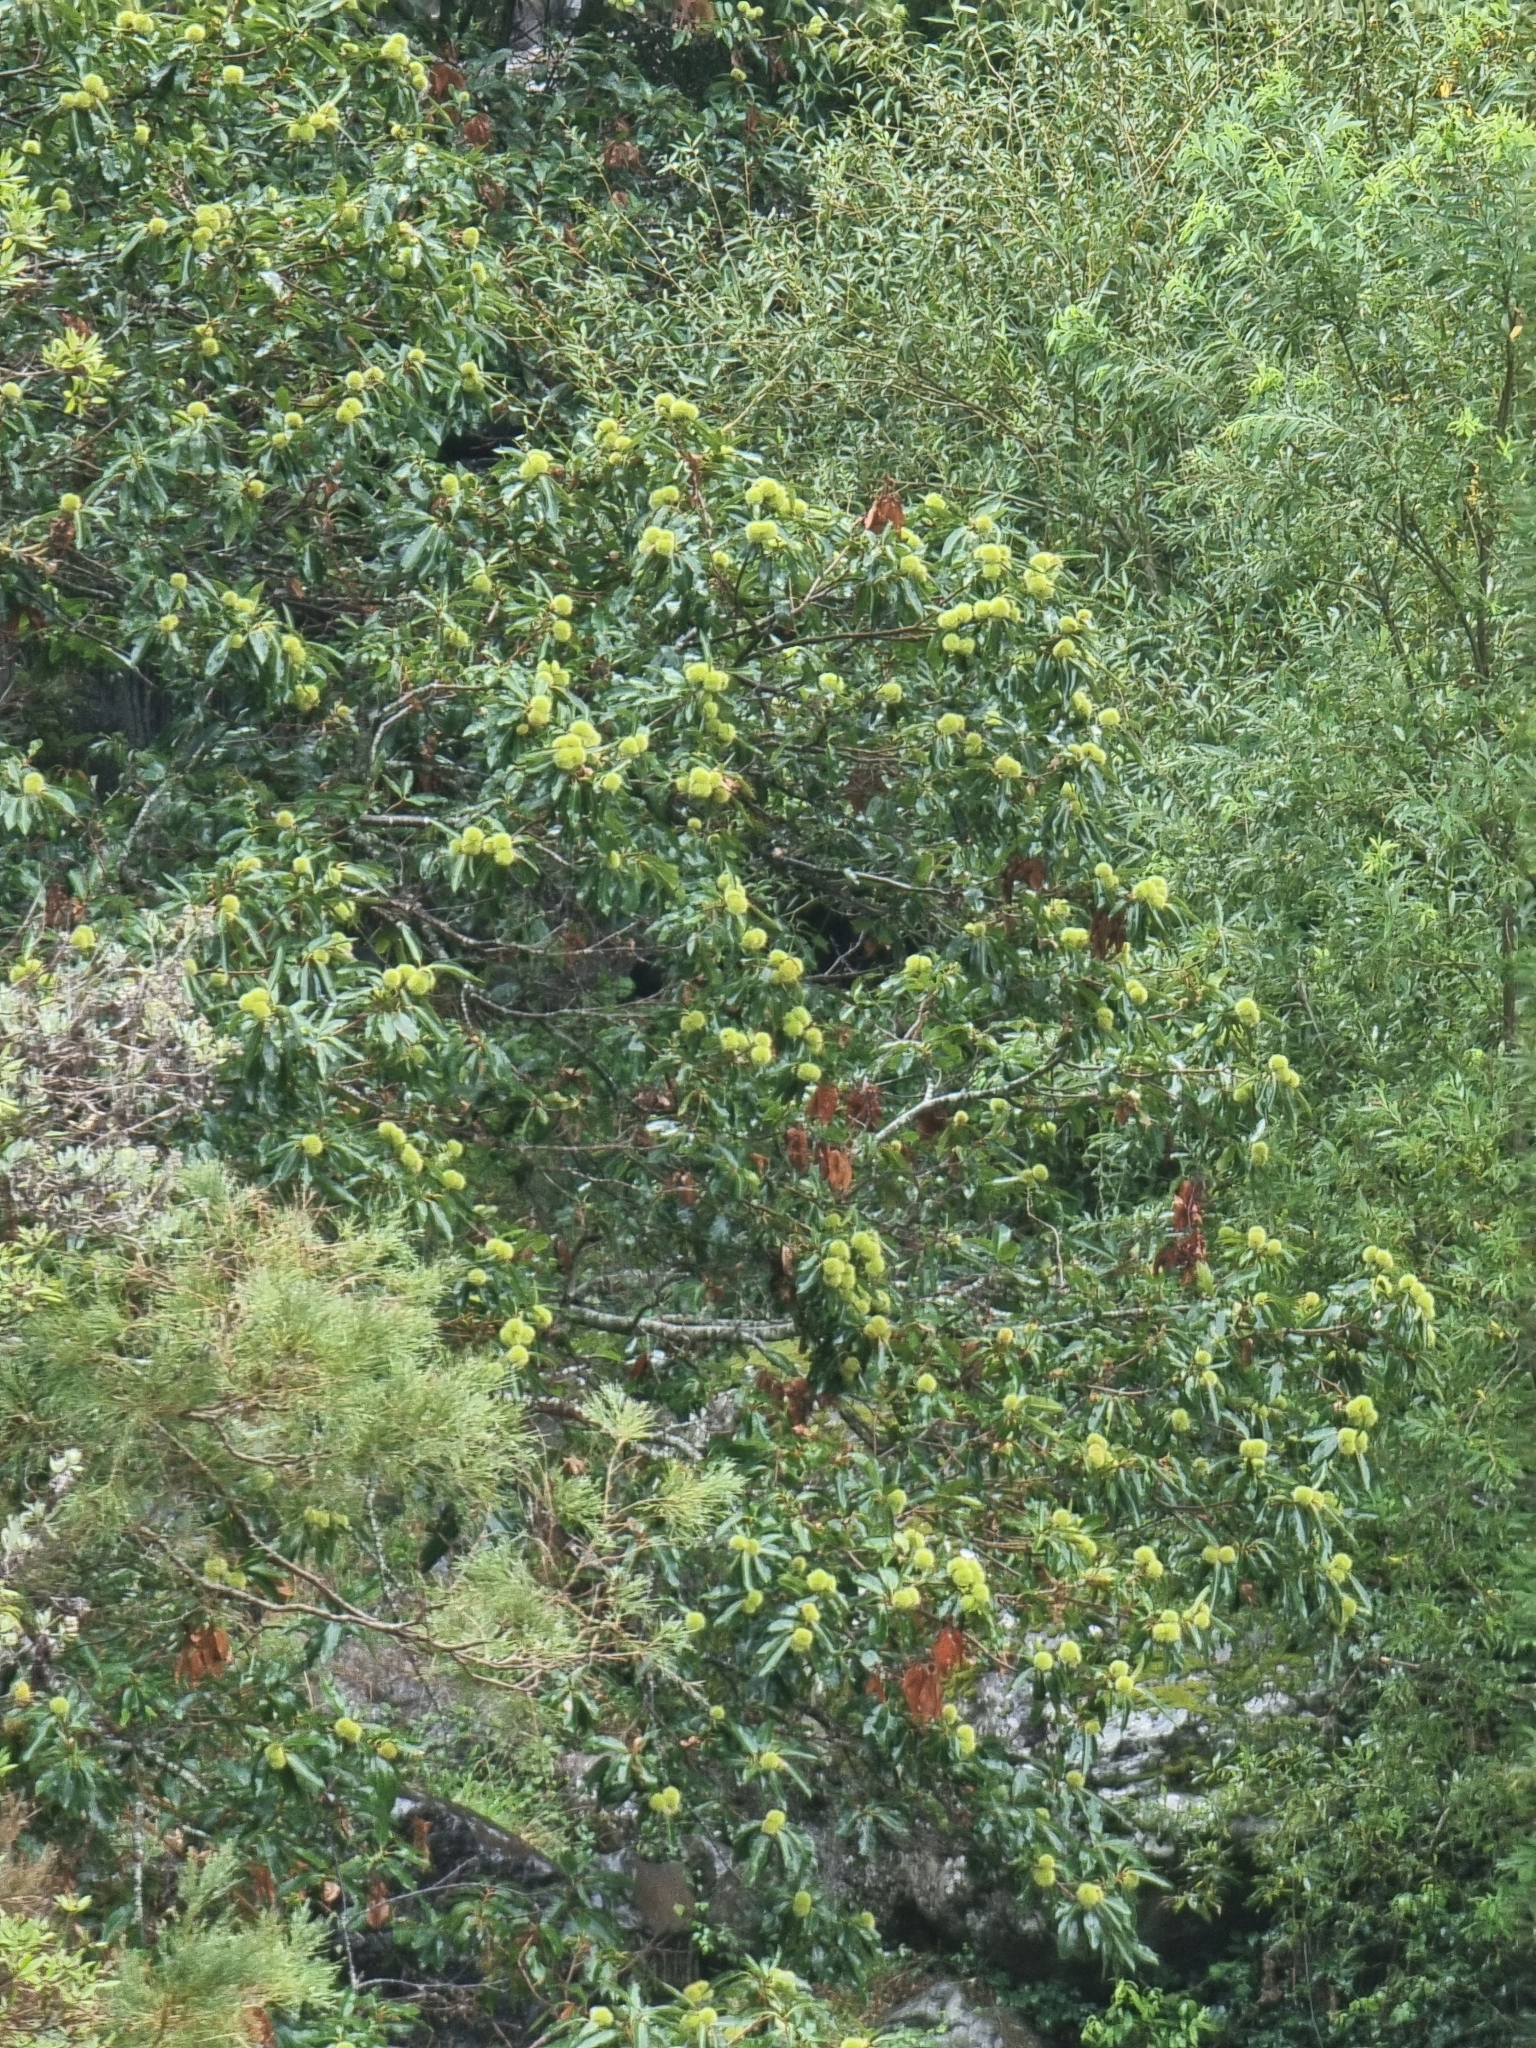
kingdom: Plantae
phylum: Tracheophyta
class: Magnoliopsida
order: Fagales
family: Fagaceae
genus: Castanea
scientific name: Castanea sativa
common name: Sweet chestnut
